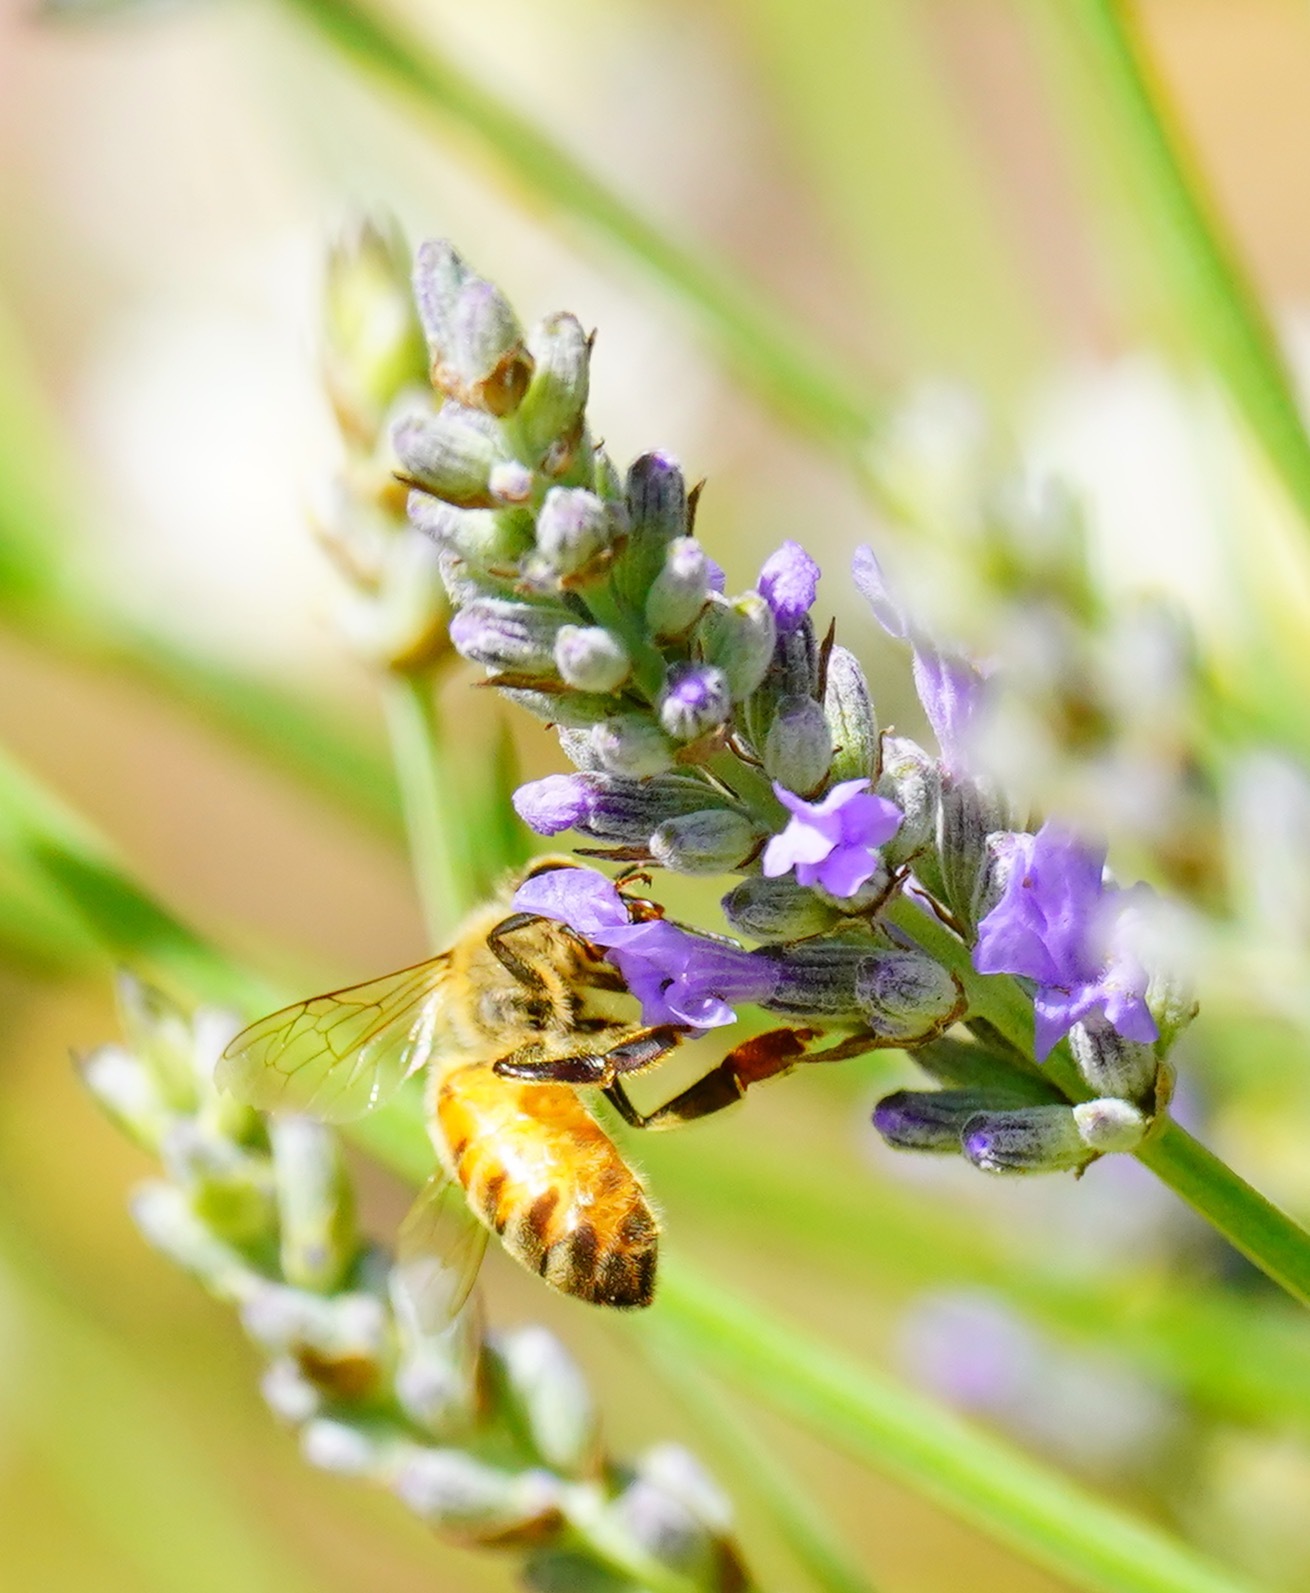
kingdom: Animalia
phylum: Arthropoda
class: Insecta
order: Hymenoptera
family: Apidae
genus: Apis
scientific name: Apis mellifera
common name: Honey bee
